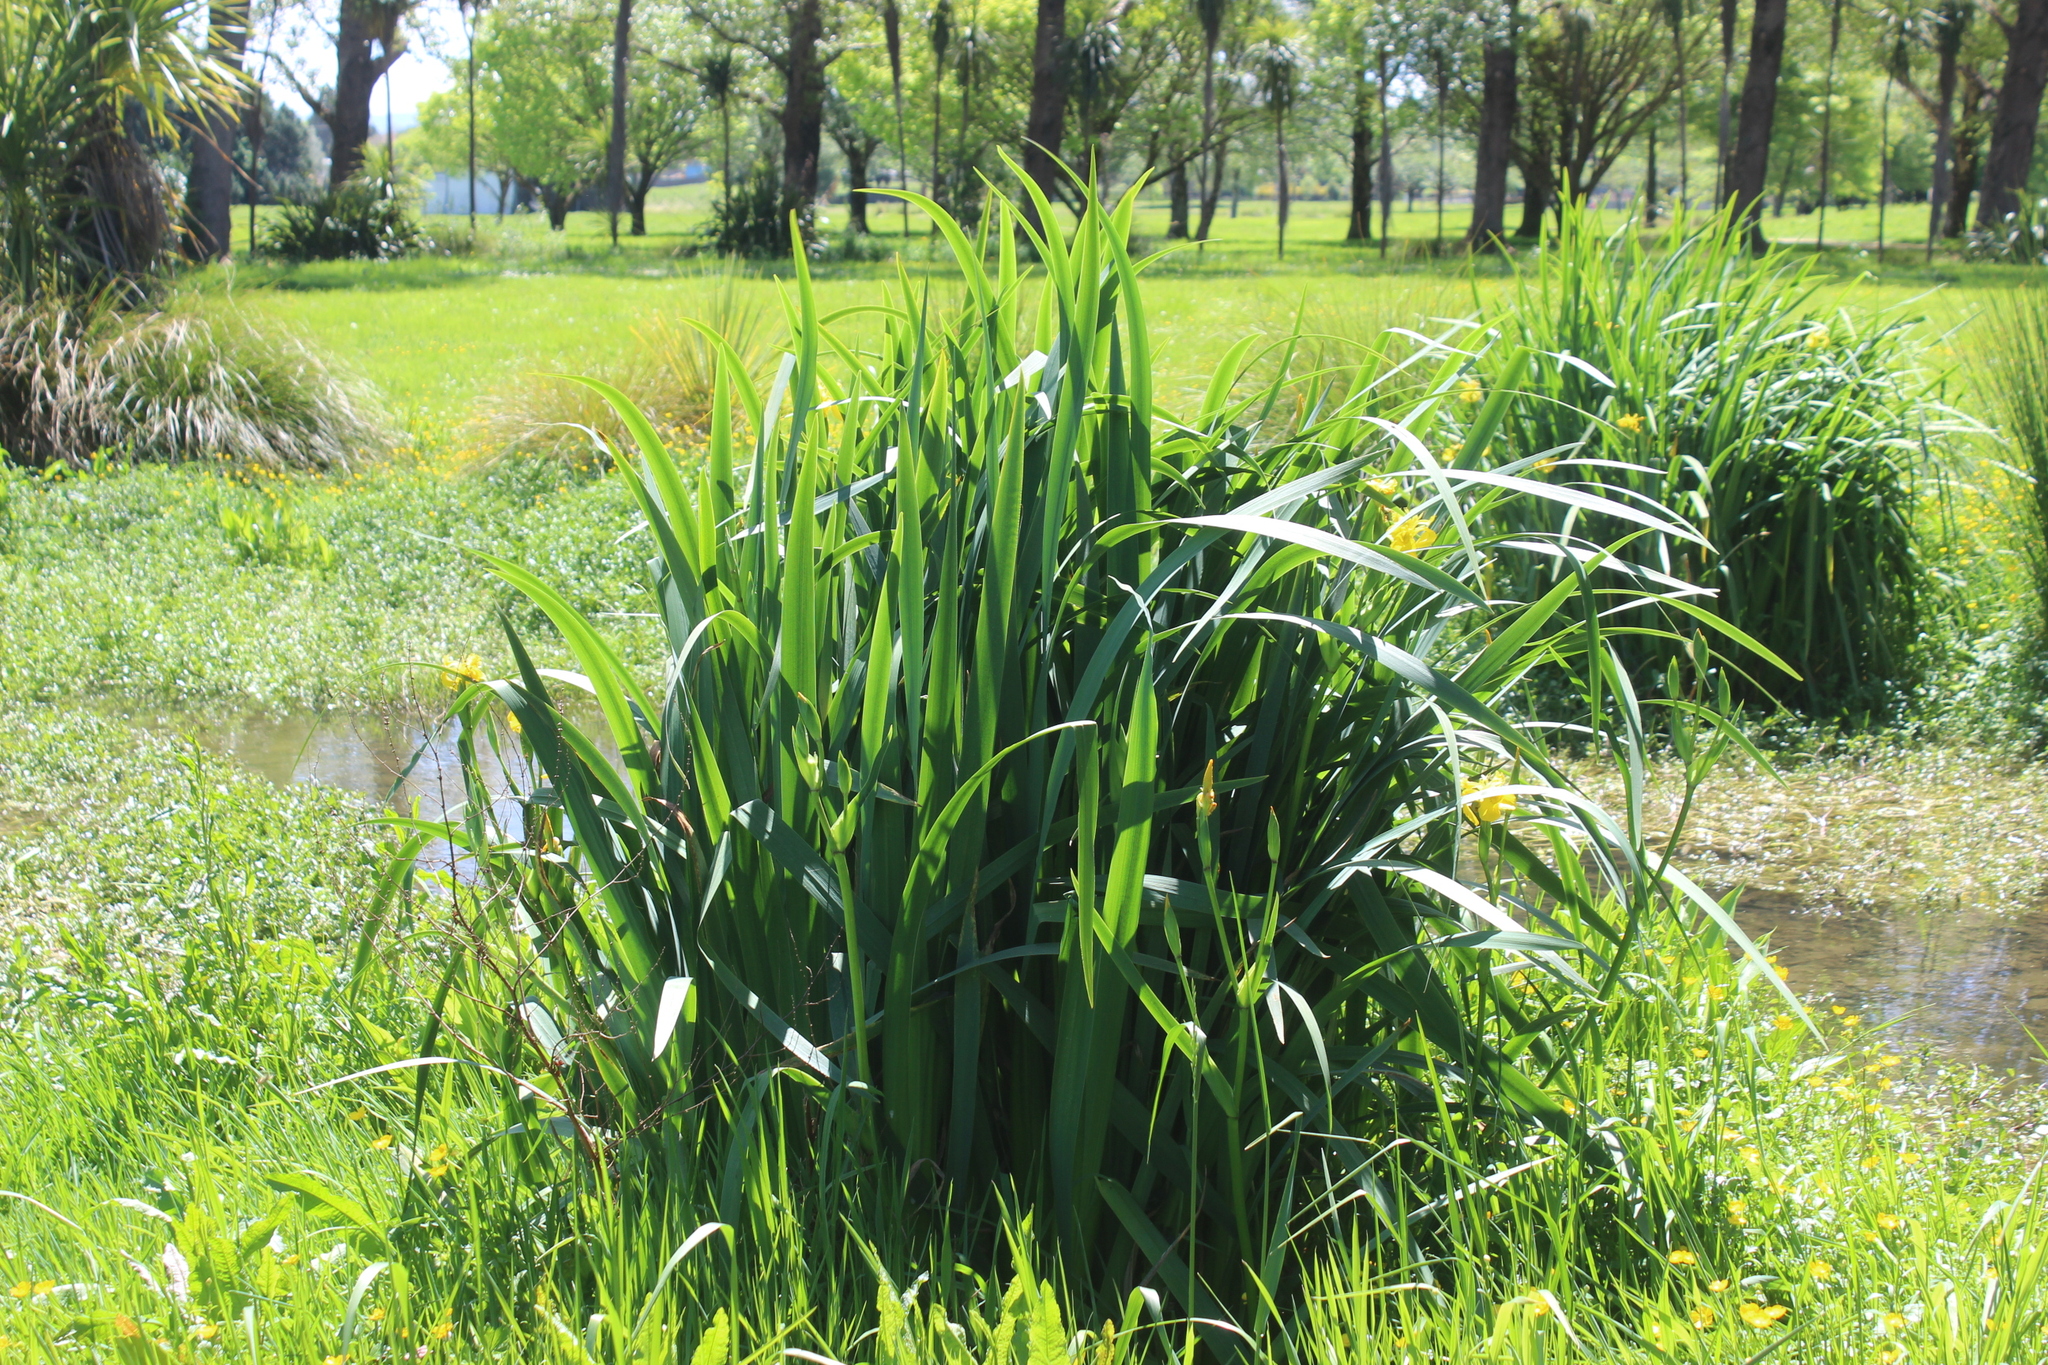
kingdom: Plantae
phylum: Tracheophyta
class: Liliopsida
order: Asparagales
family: Iridaceae
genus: Iris
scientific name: Iris pseudacorus
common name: Yellow flag
